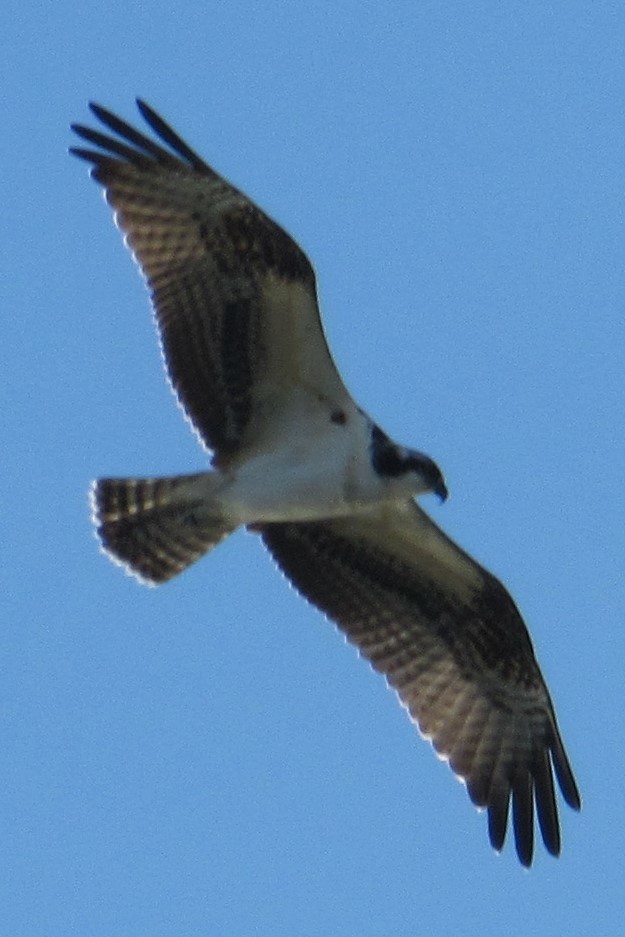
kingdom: Animalia
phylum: Chordata
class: Aves
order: Accipitriformes
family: Pandionidae
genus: Pandion
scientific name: Pandion haliaetus
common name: Osprey
